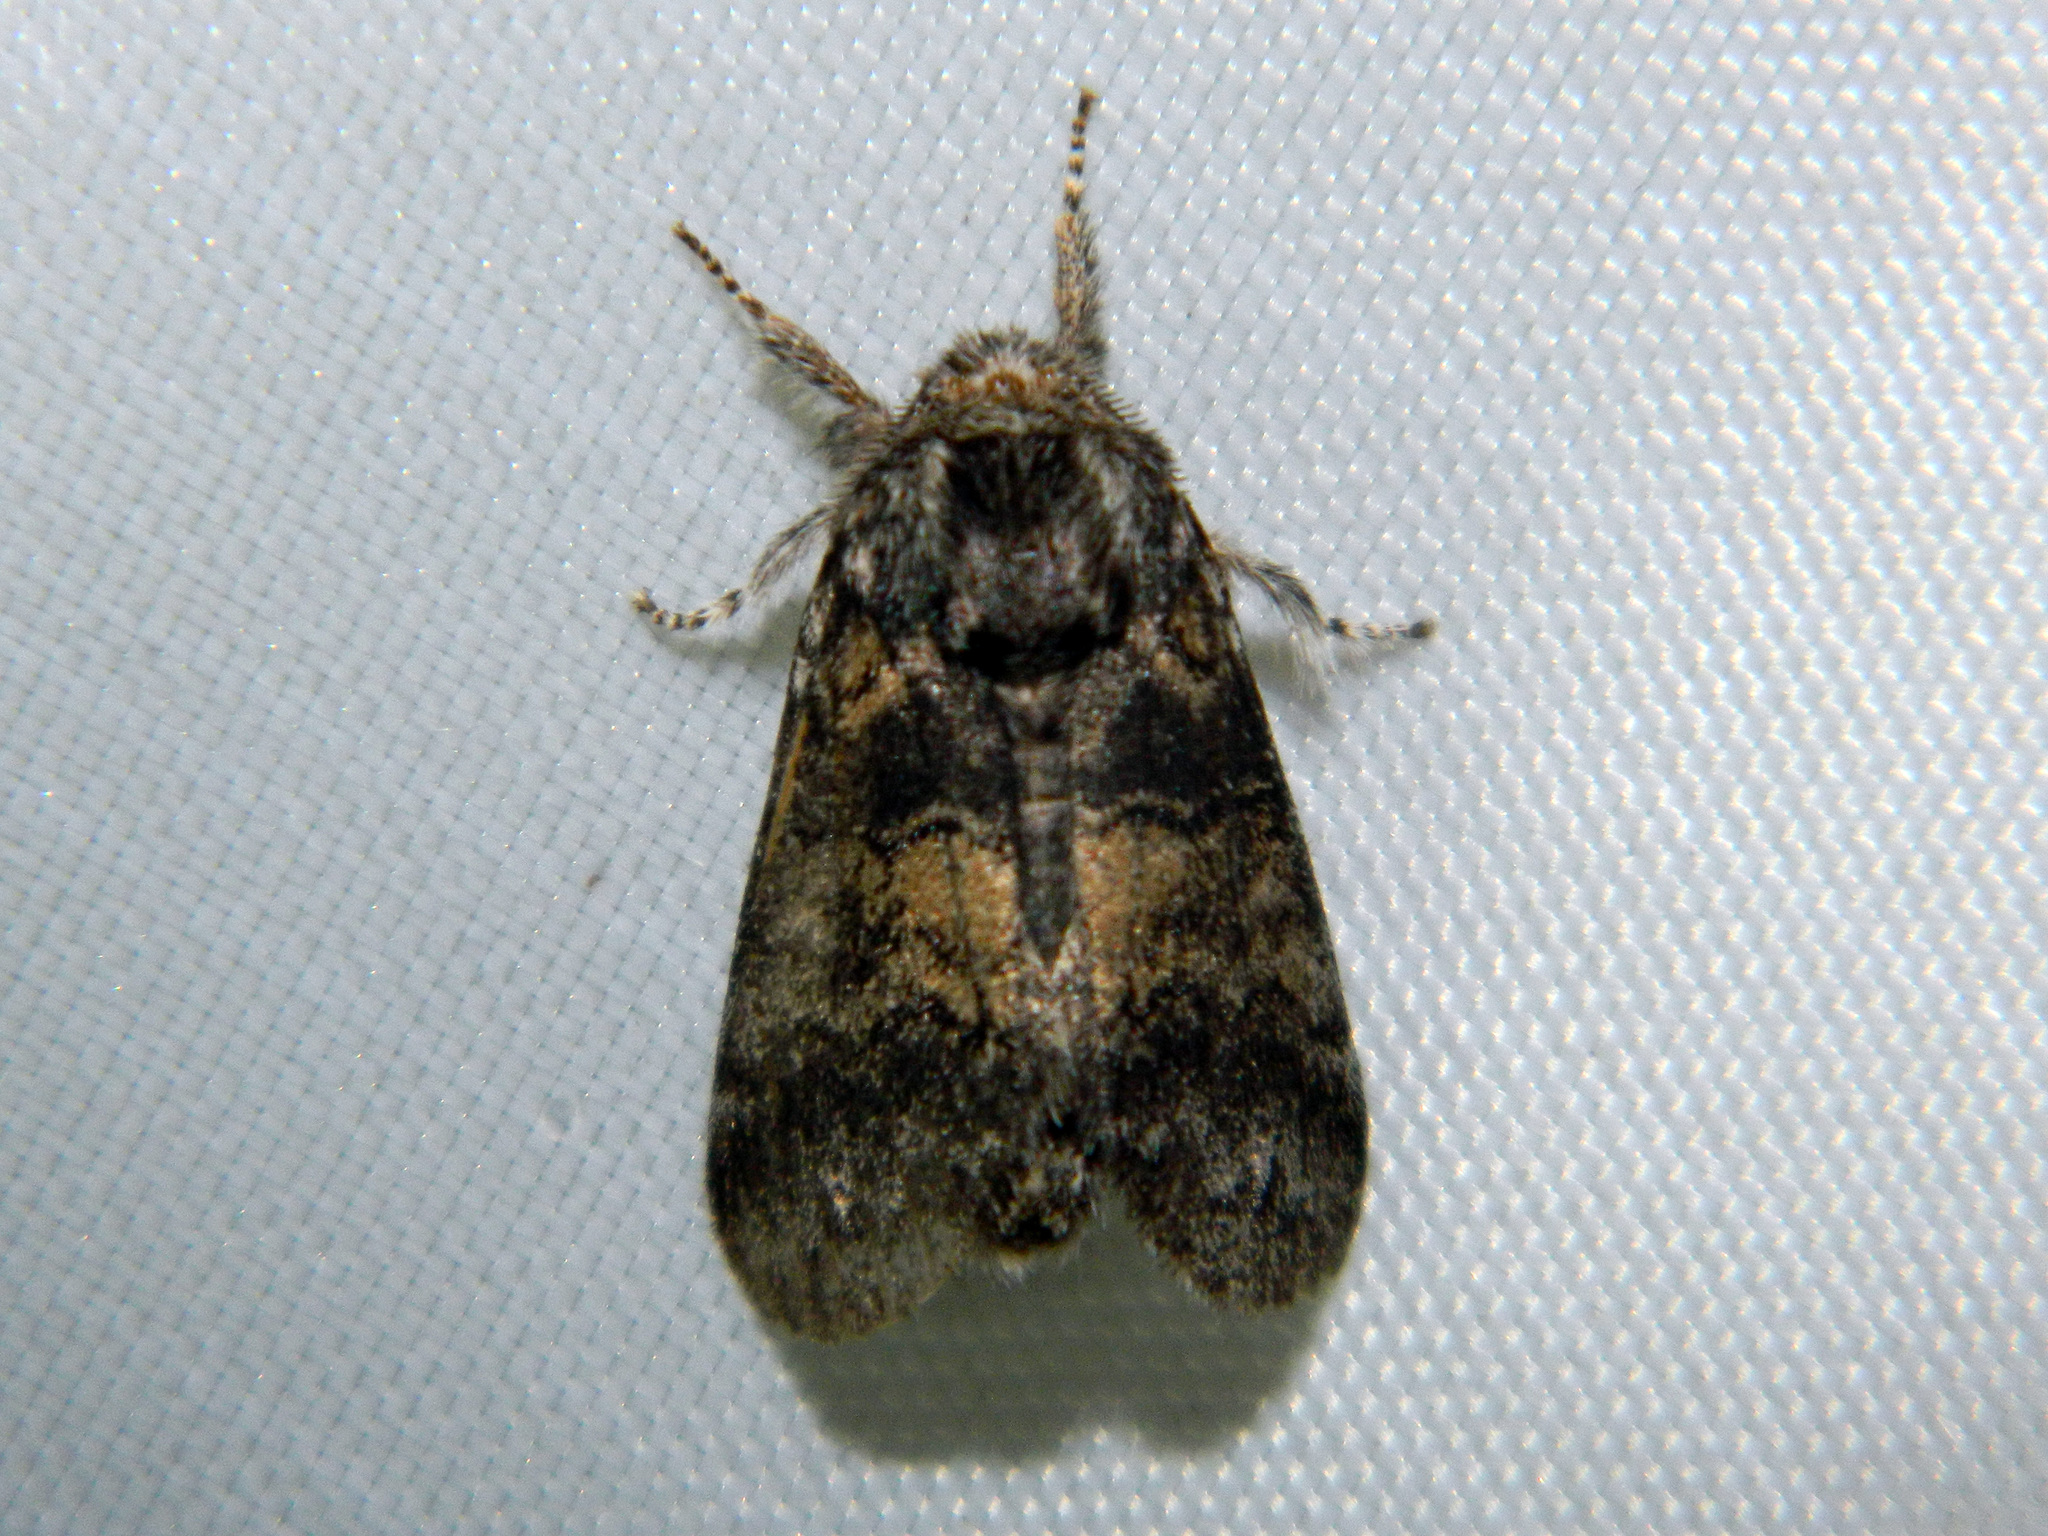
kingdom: Animalia
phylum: Arthropoda
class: Insecta
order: Lepidoptera
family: Notodontidae
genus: Gluphisia
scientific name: Gluphisia septentrionis
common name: Common gluphisia
